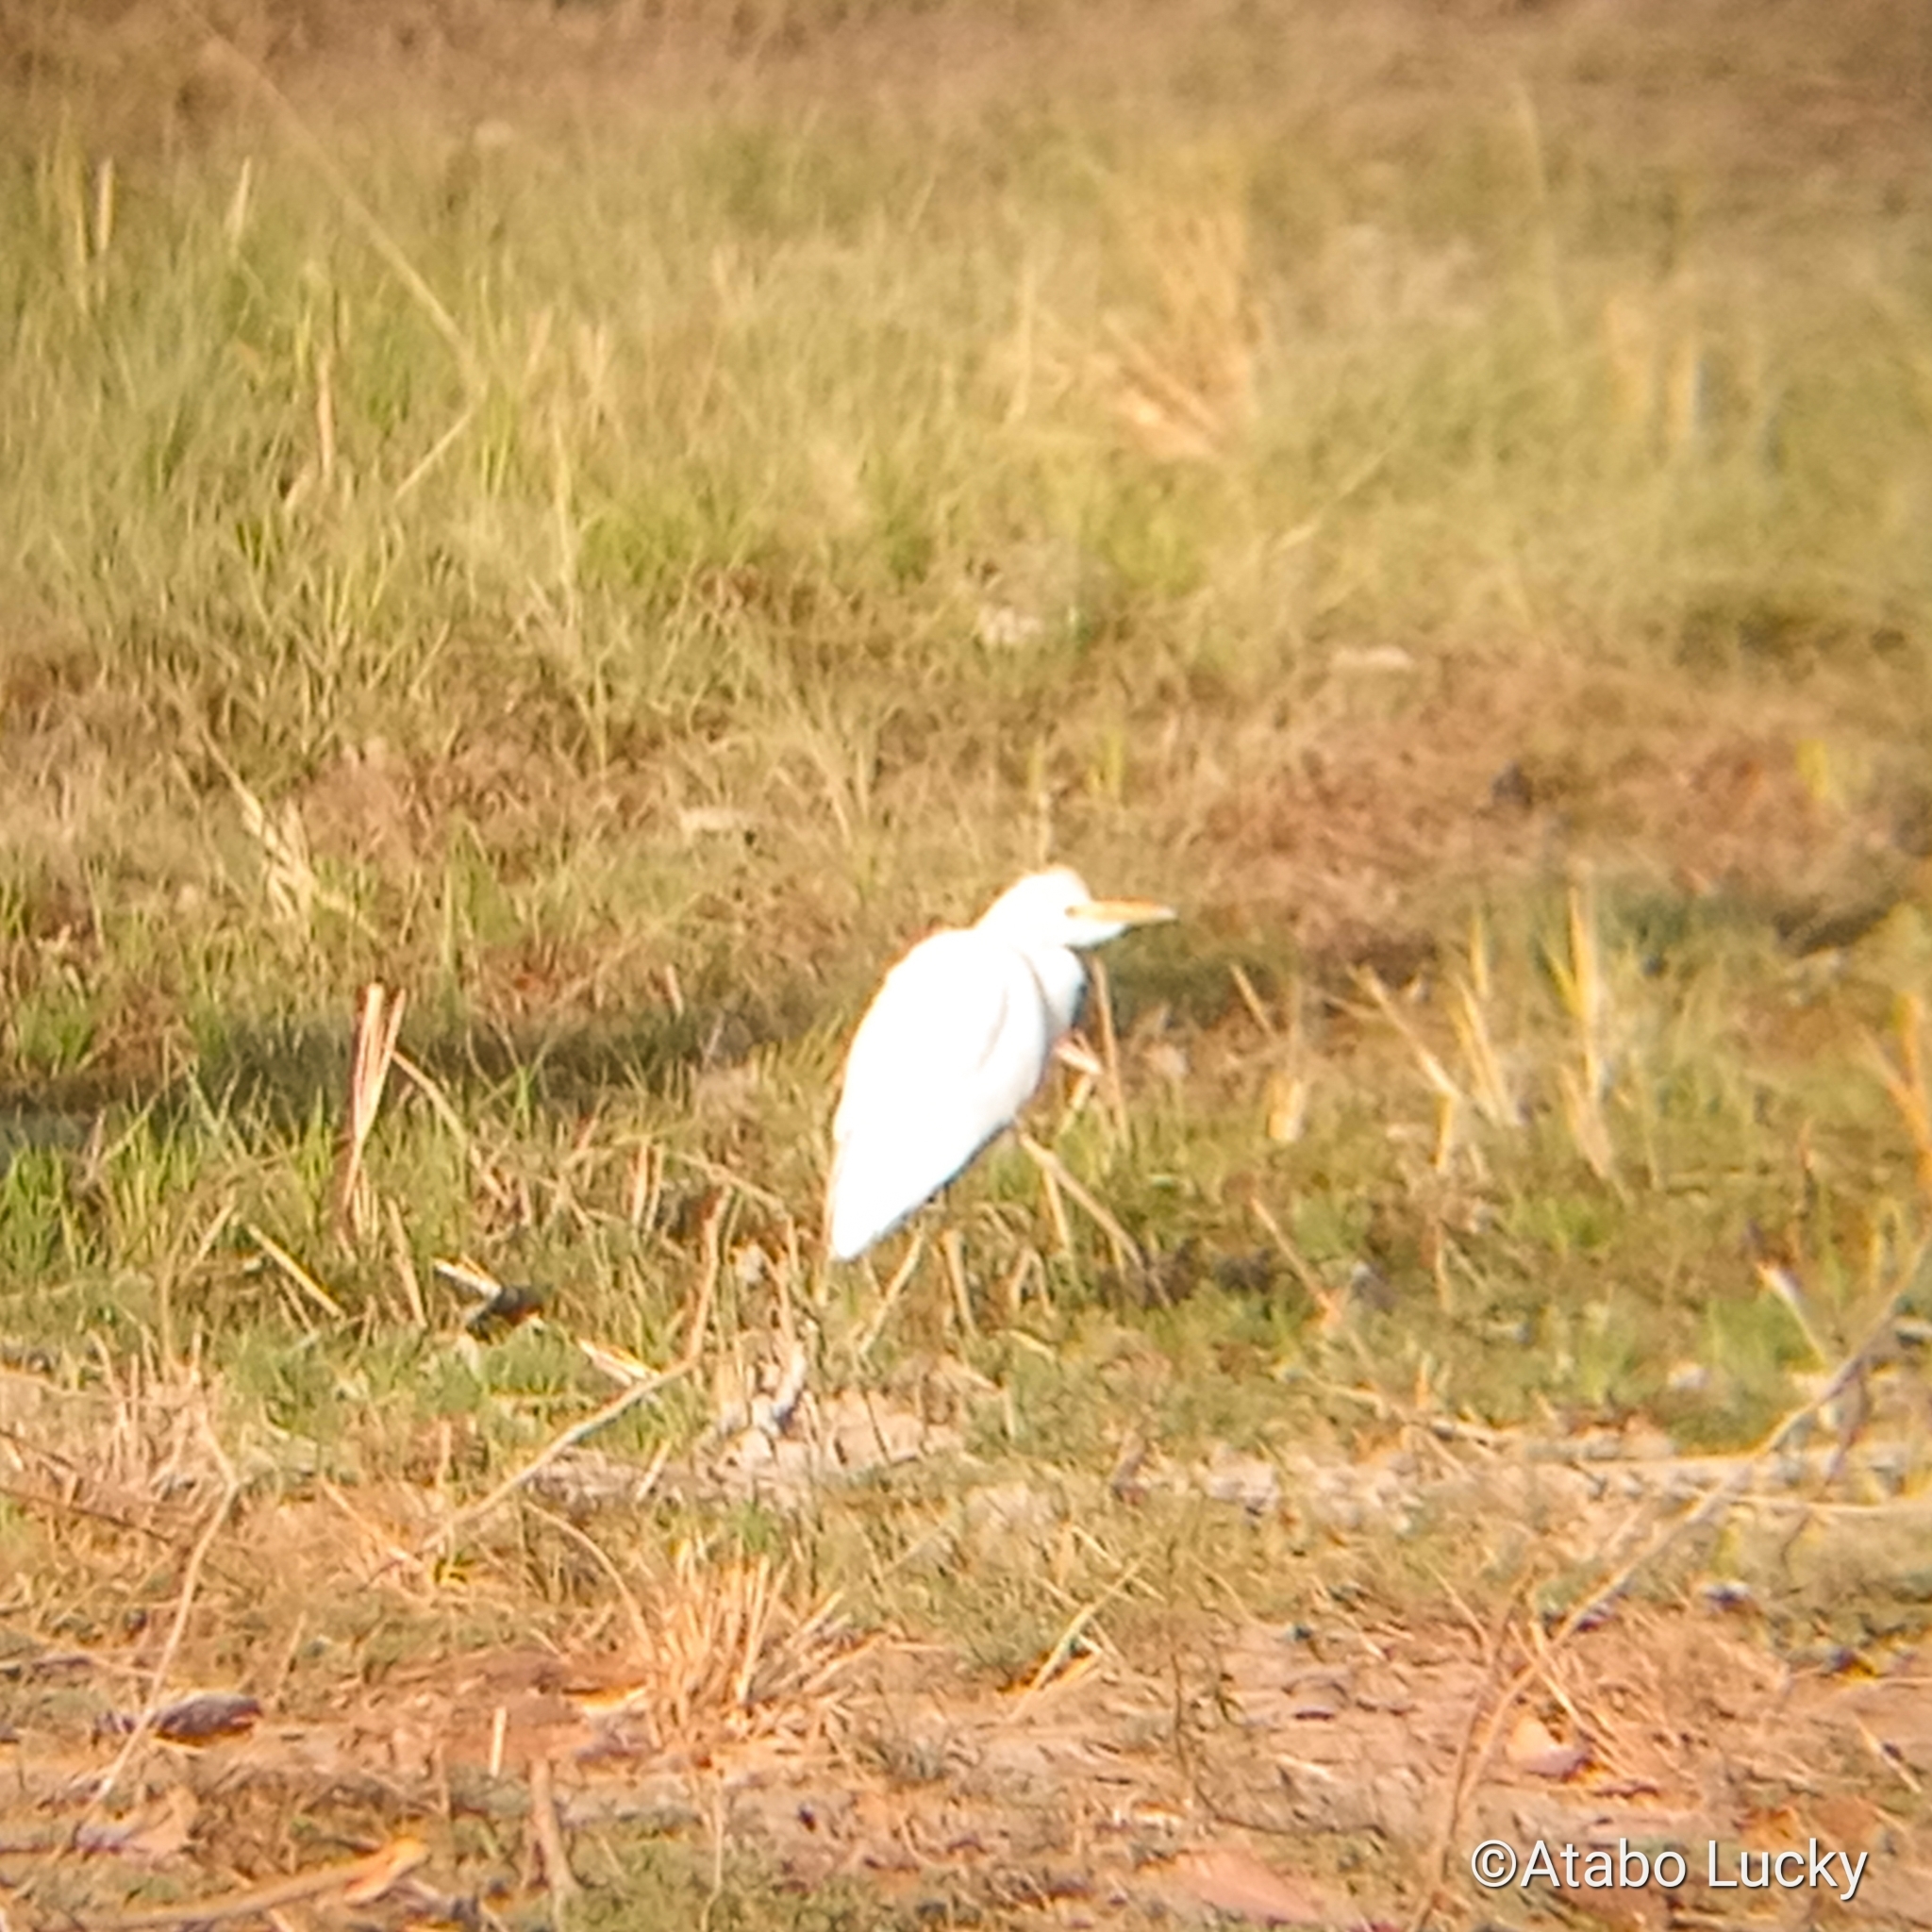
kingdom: Animalia
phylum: Chordata
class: Aves
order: Pelecaniformes
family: Ardeidae
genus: Bubulcus
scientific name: Bubulcus ibis
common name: Cattle egret
